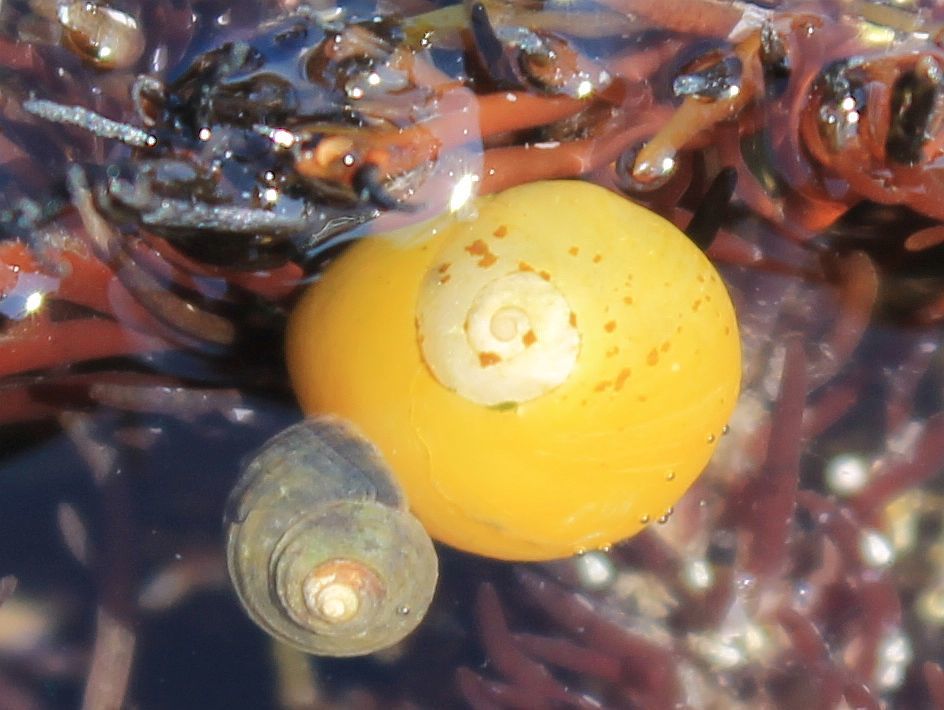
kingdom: Animalia
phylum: Mollusca
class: Gastropoda
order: Littorinimorpha
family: Littorinidae
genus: Littorina
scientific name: Littorina
